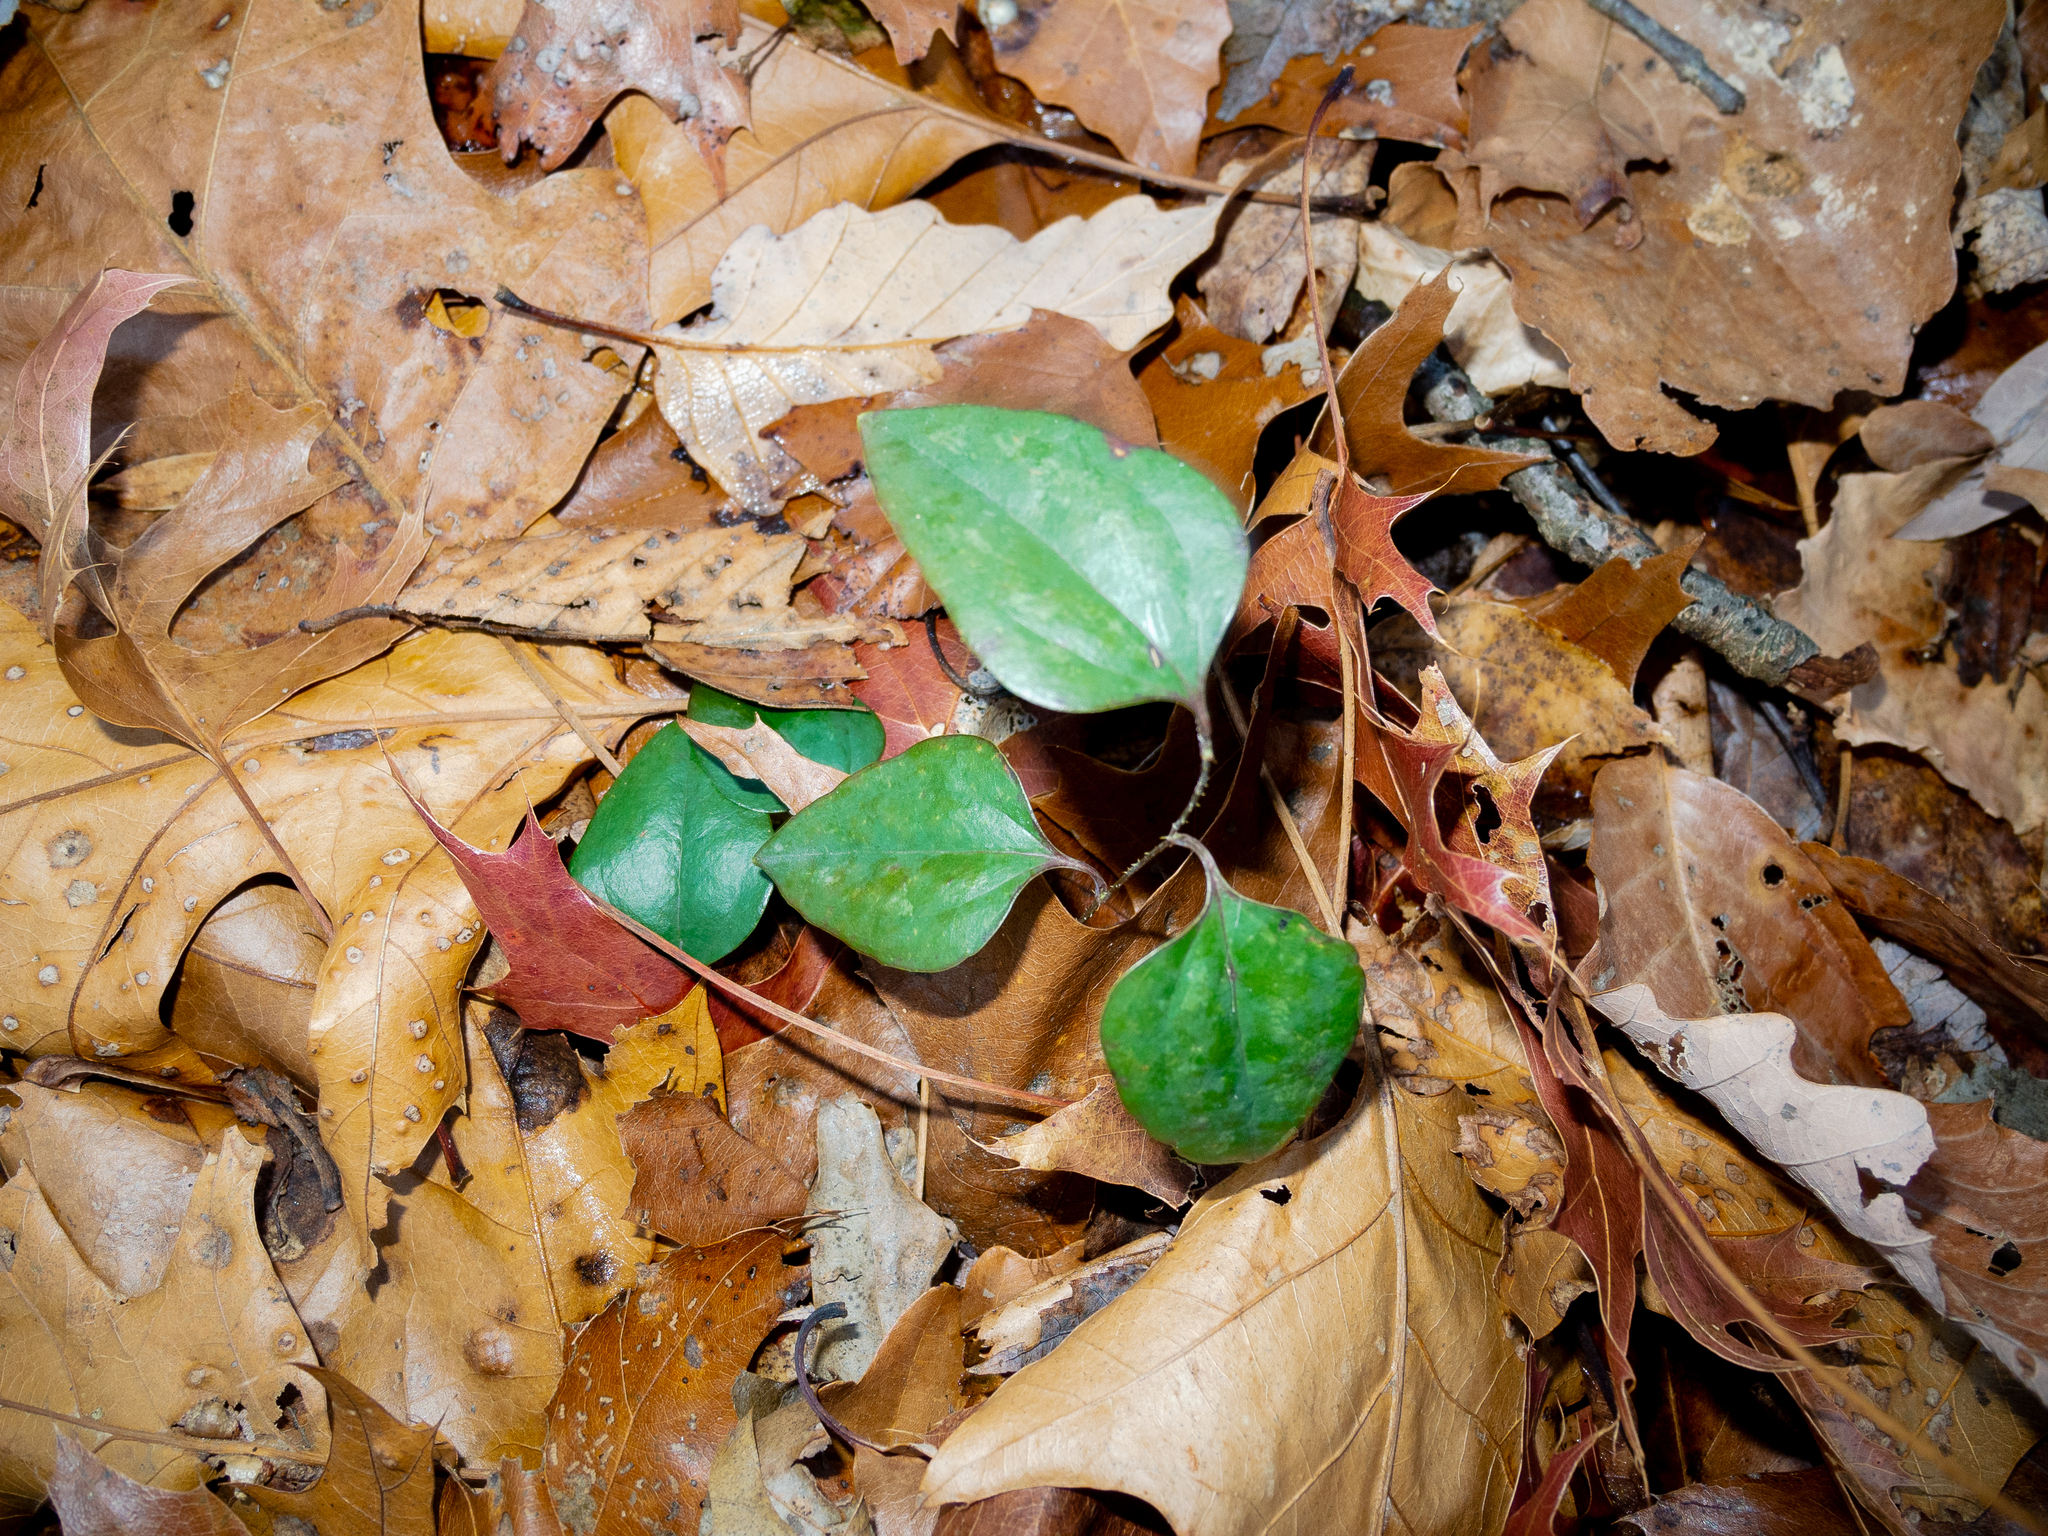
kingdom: Plantae
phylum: Tracheophyta
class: Liliopsida
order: Liliales
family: Smilacaceae
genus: Smilax
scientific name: Smilax glauca
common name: Cat greenbrier
